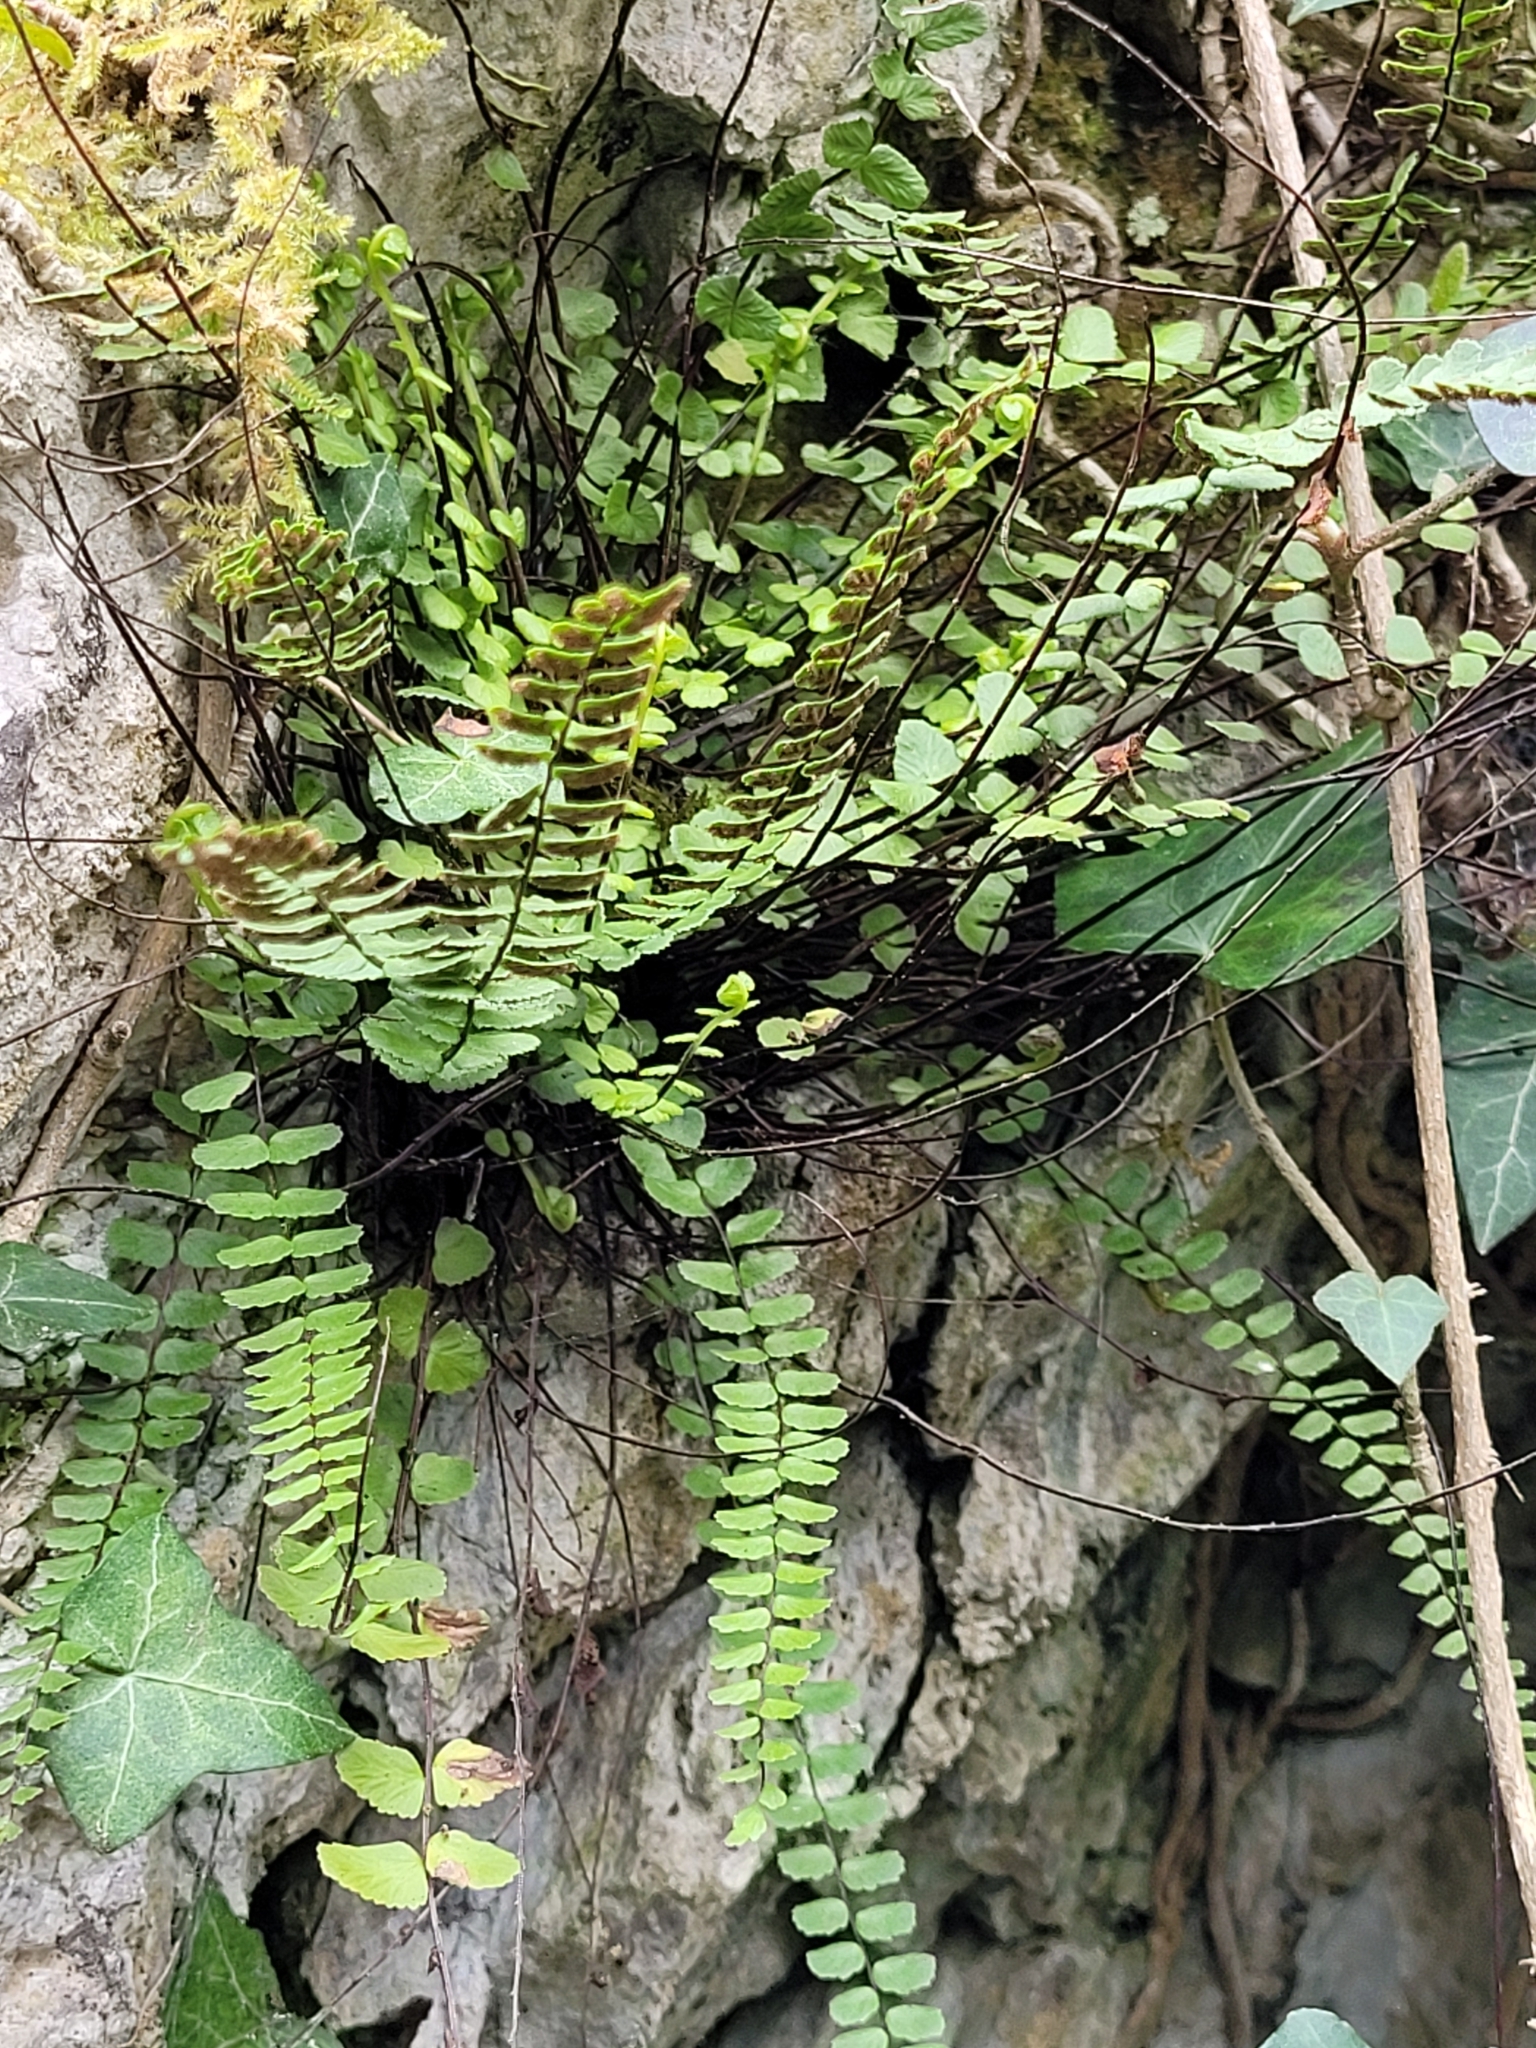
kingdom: Plantae
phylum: Tracheophyta
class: Polypodiopsida
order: Polypodiales
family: Aspleniaceae
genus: Asplenium
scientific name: Asplenium trichomanes
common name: Maidenhair spleenwort
